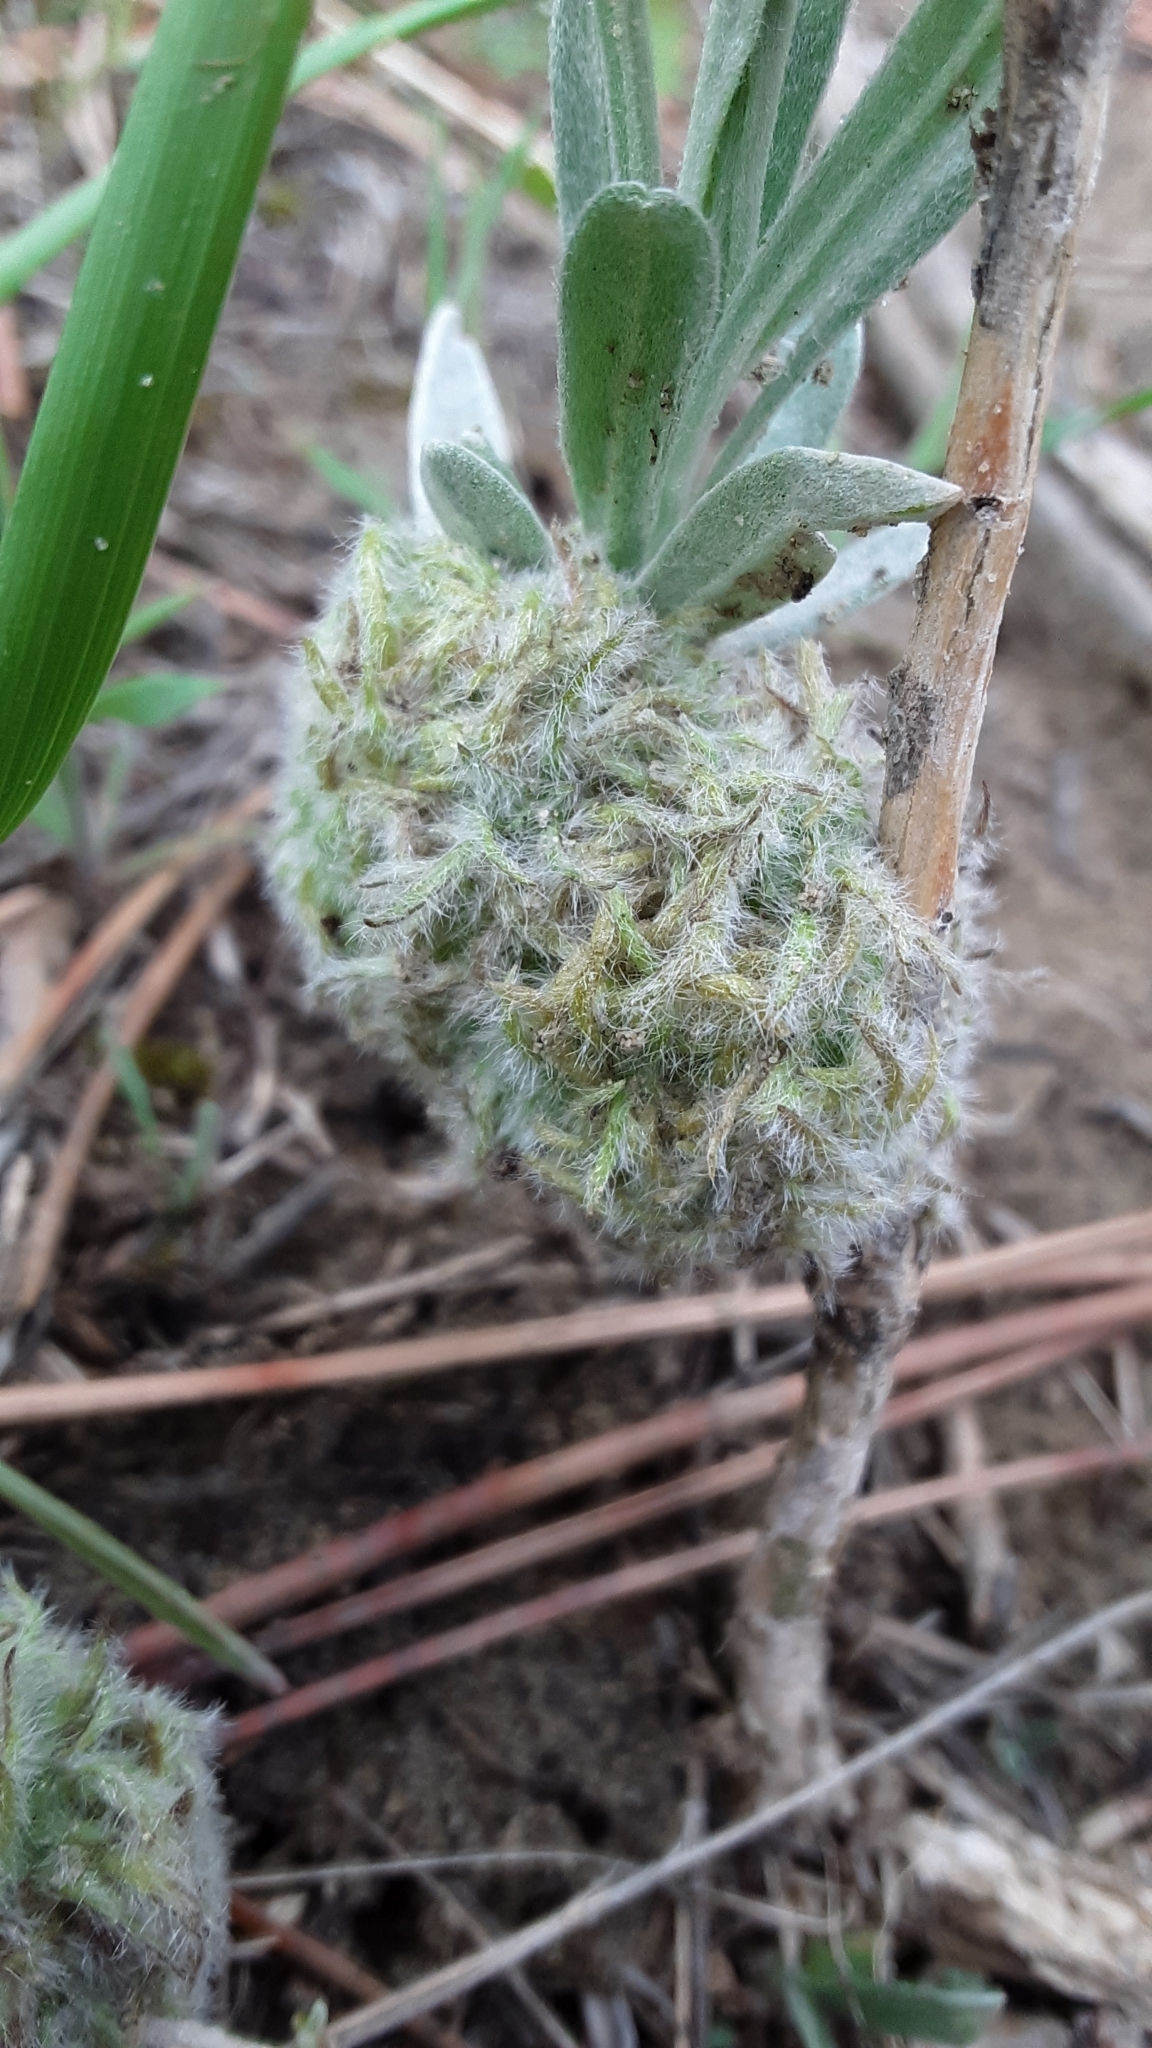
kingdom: Animalia
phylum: Arthropoda
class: Insecta
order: Diptera
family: Cecidomyiidae
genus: Rhopalomyia
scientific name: Rhopalomyia medusirrasa
